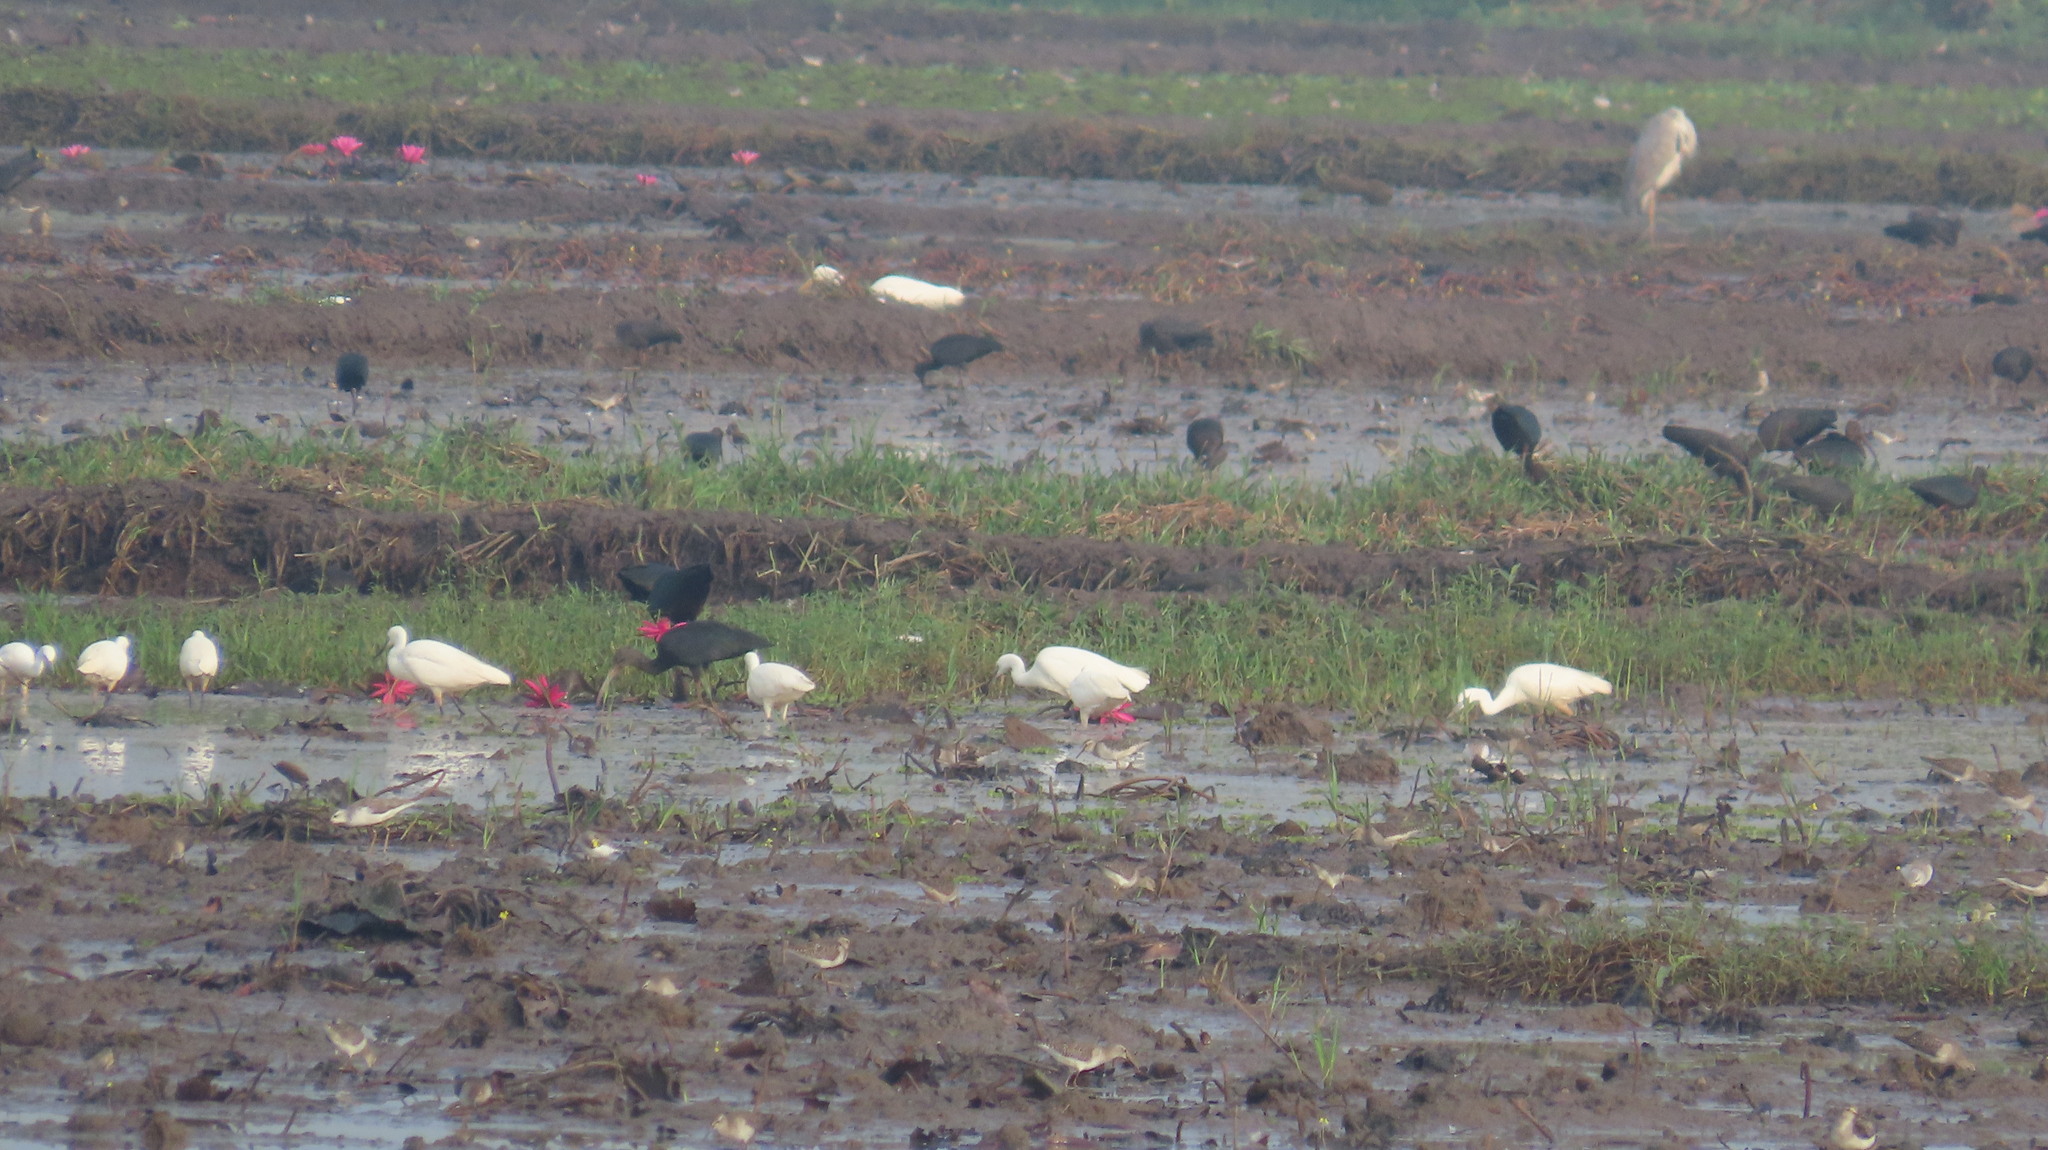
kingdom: Animalia
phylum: Chordata
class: Aves
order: Charadriiformes
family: Scolopacidae
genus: Tringa
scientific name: Tringa glareola
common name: Wood sandpiper
